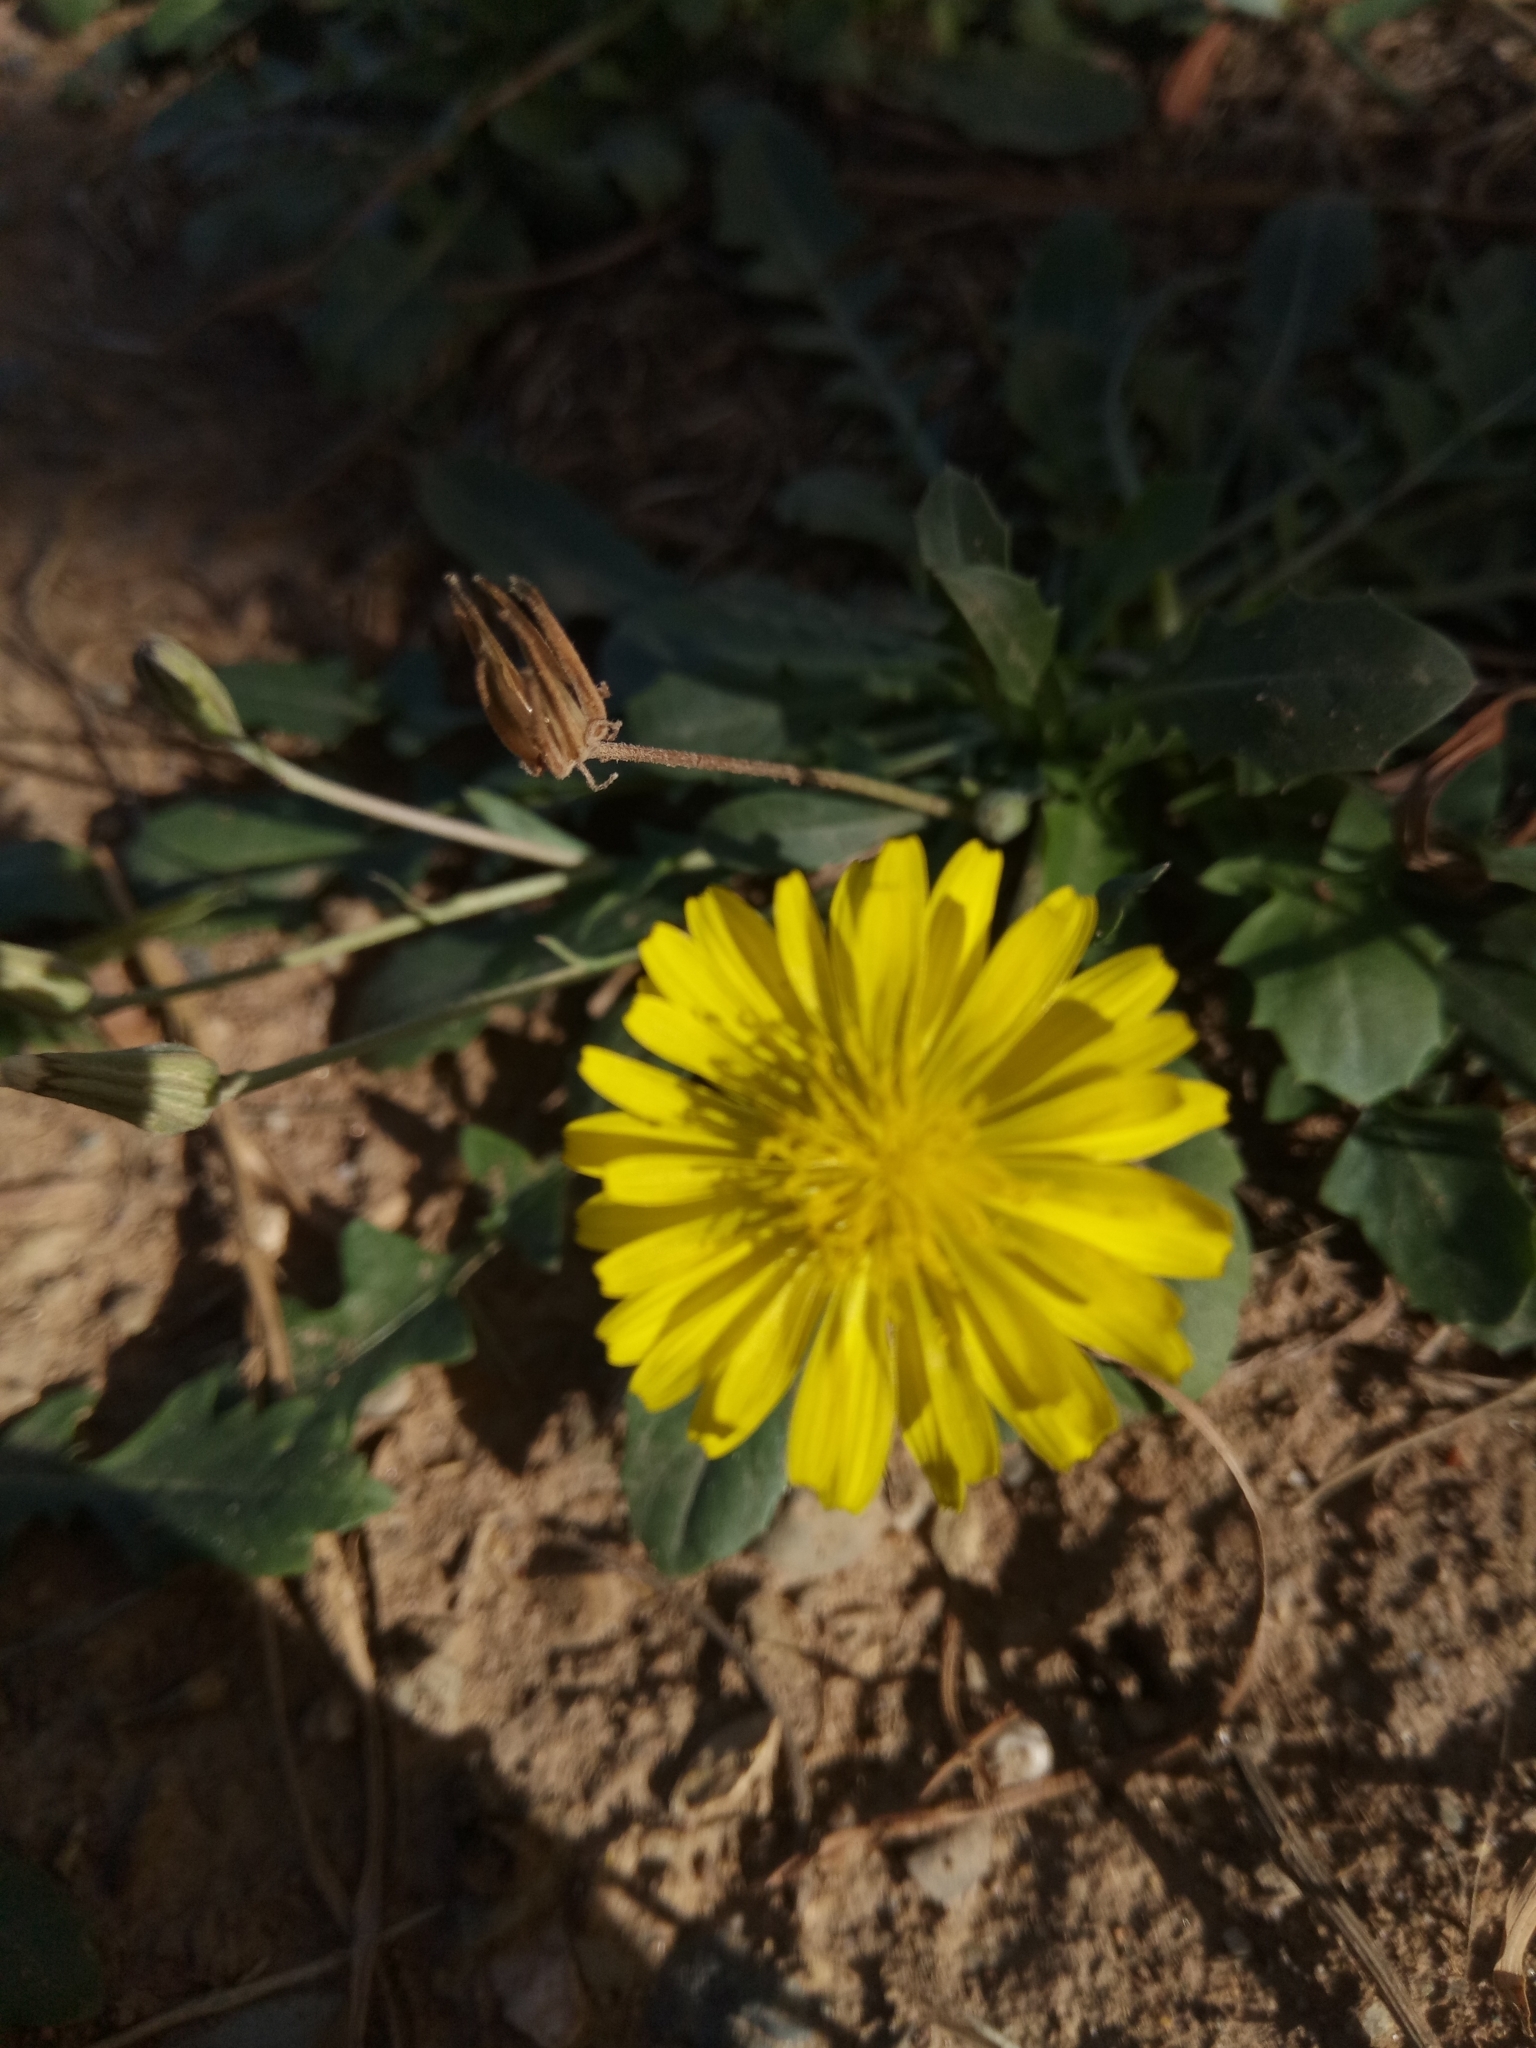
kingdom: Plantae
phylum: Tracheophyta
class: Magnoliopsida
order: Asterales
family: Asteraceae
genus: Crepis
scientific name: Crepis bursifolia
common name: Italian hawksbeard
